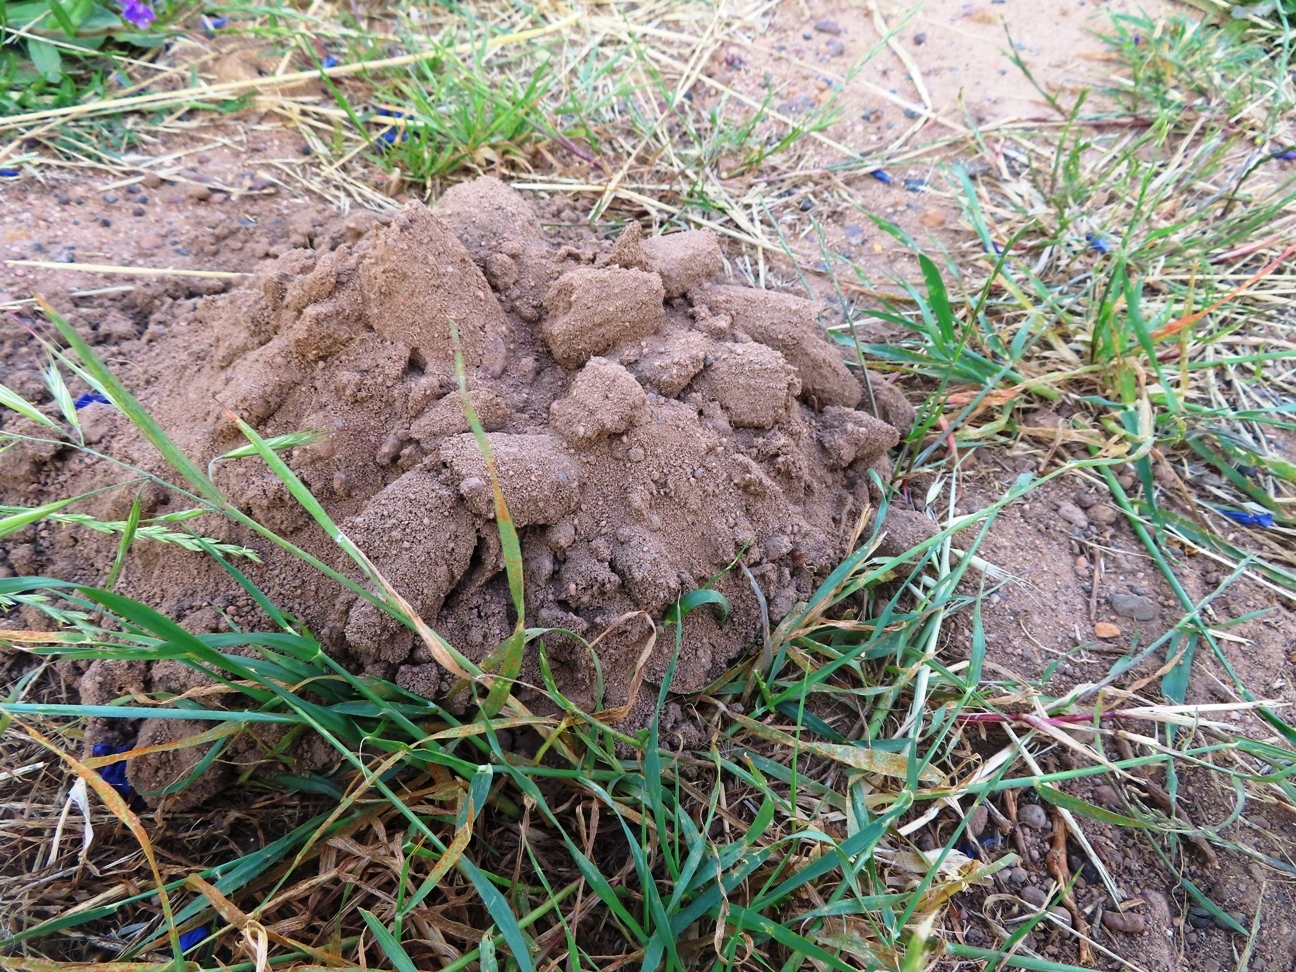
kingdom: Animalia
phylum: Chordata
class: Mammalia
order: Rodentia
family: Bathyergidae
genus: Bathyergus
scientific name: Bathyergus suillus
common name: Cape dune mole rat
